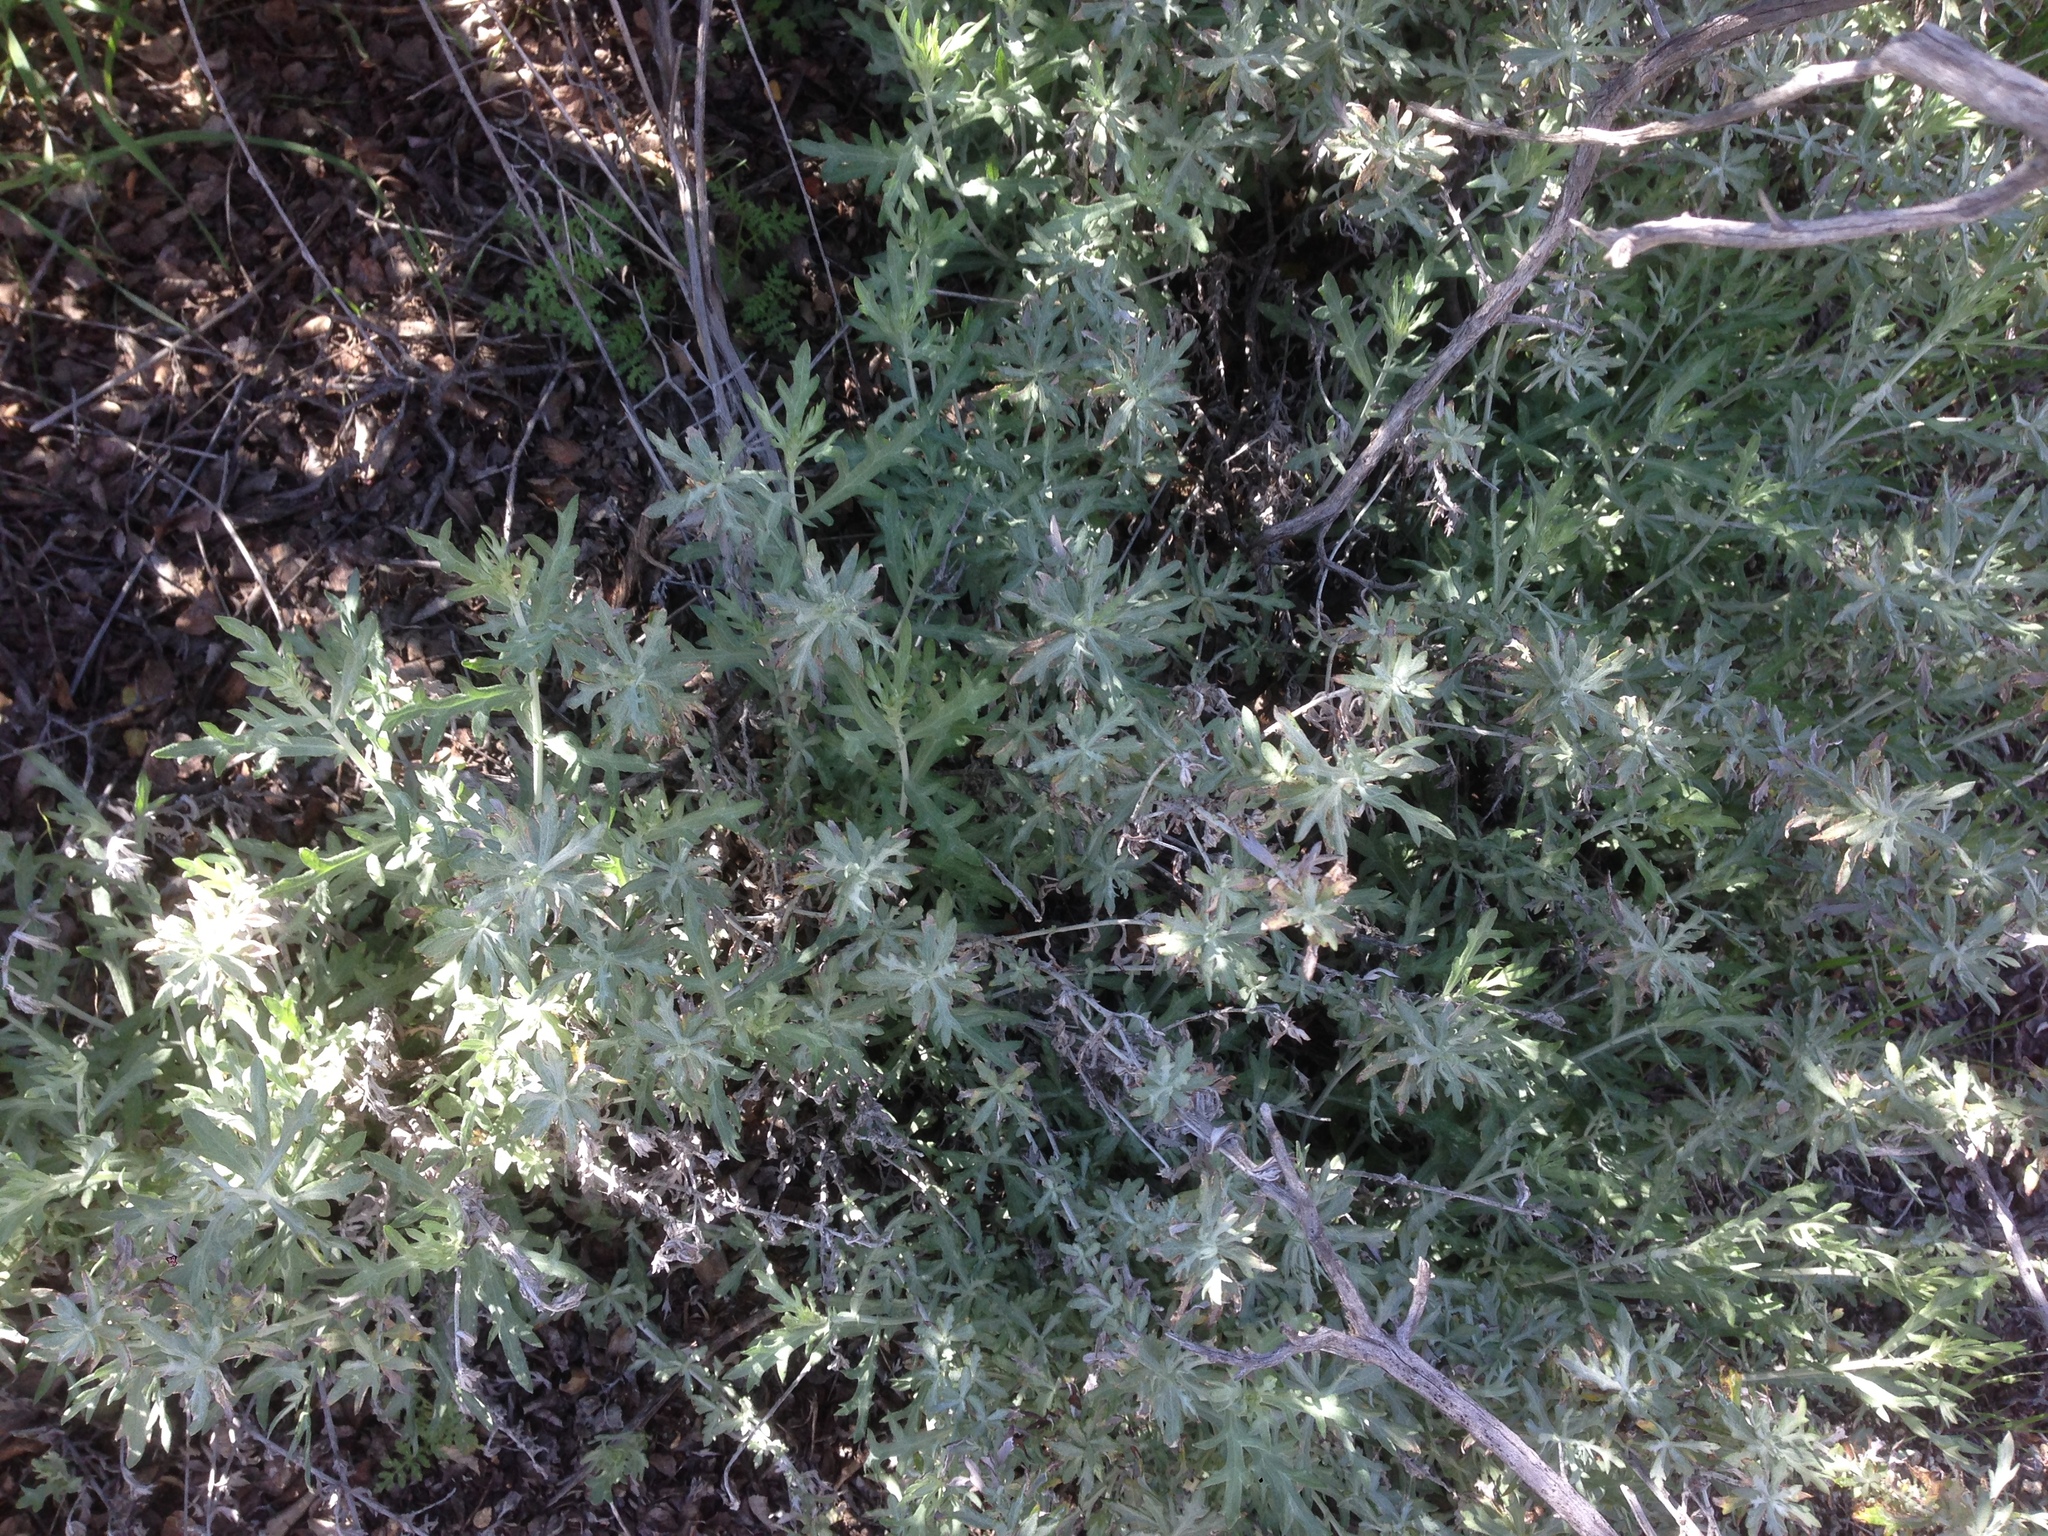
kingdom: Plantae
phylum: Tracheophyta
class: Magnoliopsida
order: Asterales
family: Asteraceae
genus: Artemisia
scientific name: Artemisia ludoviciana
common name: Western mugwort
